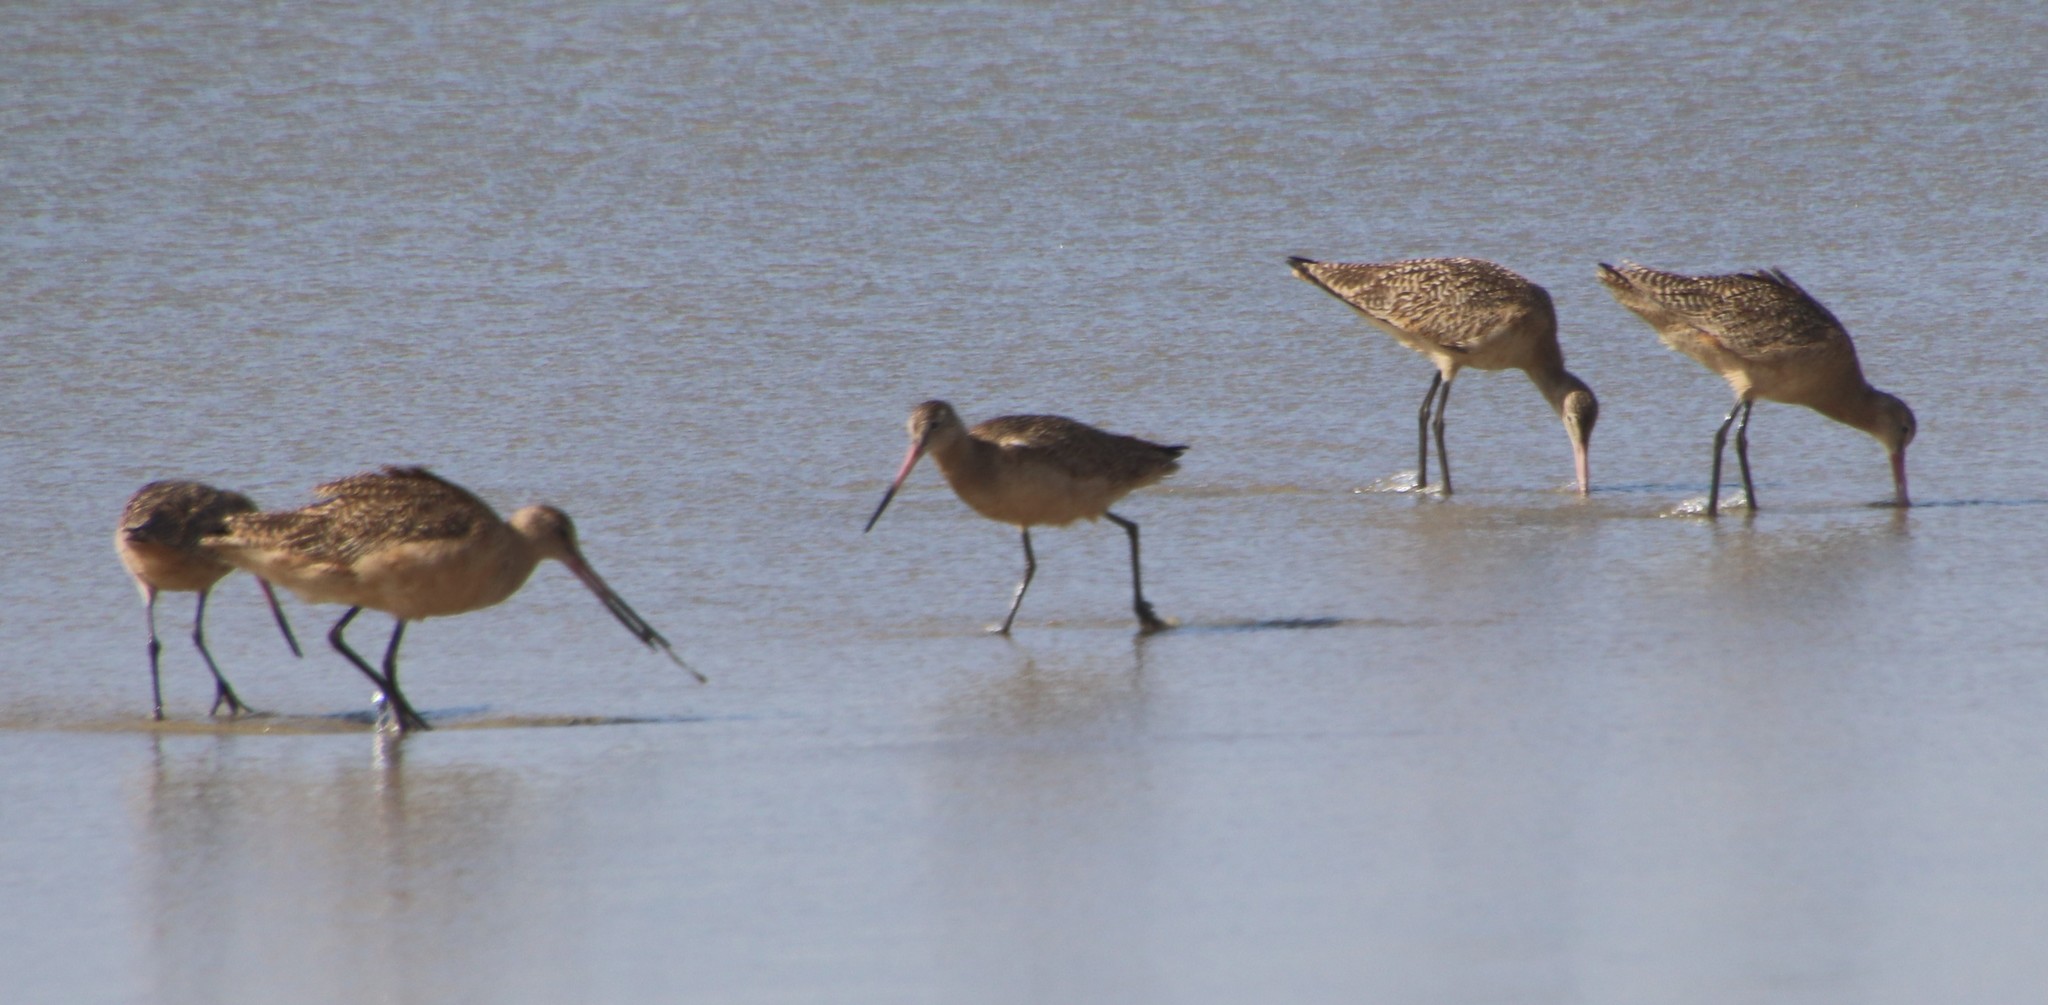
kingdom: Animalia
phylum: Chordata
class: Aves
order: Charadriiformes
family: Scolopacidae
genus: Limosa
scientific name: Limosa fedoa
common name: Marbled godwit
